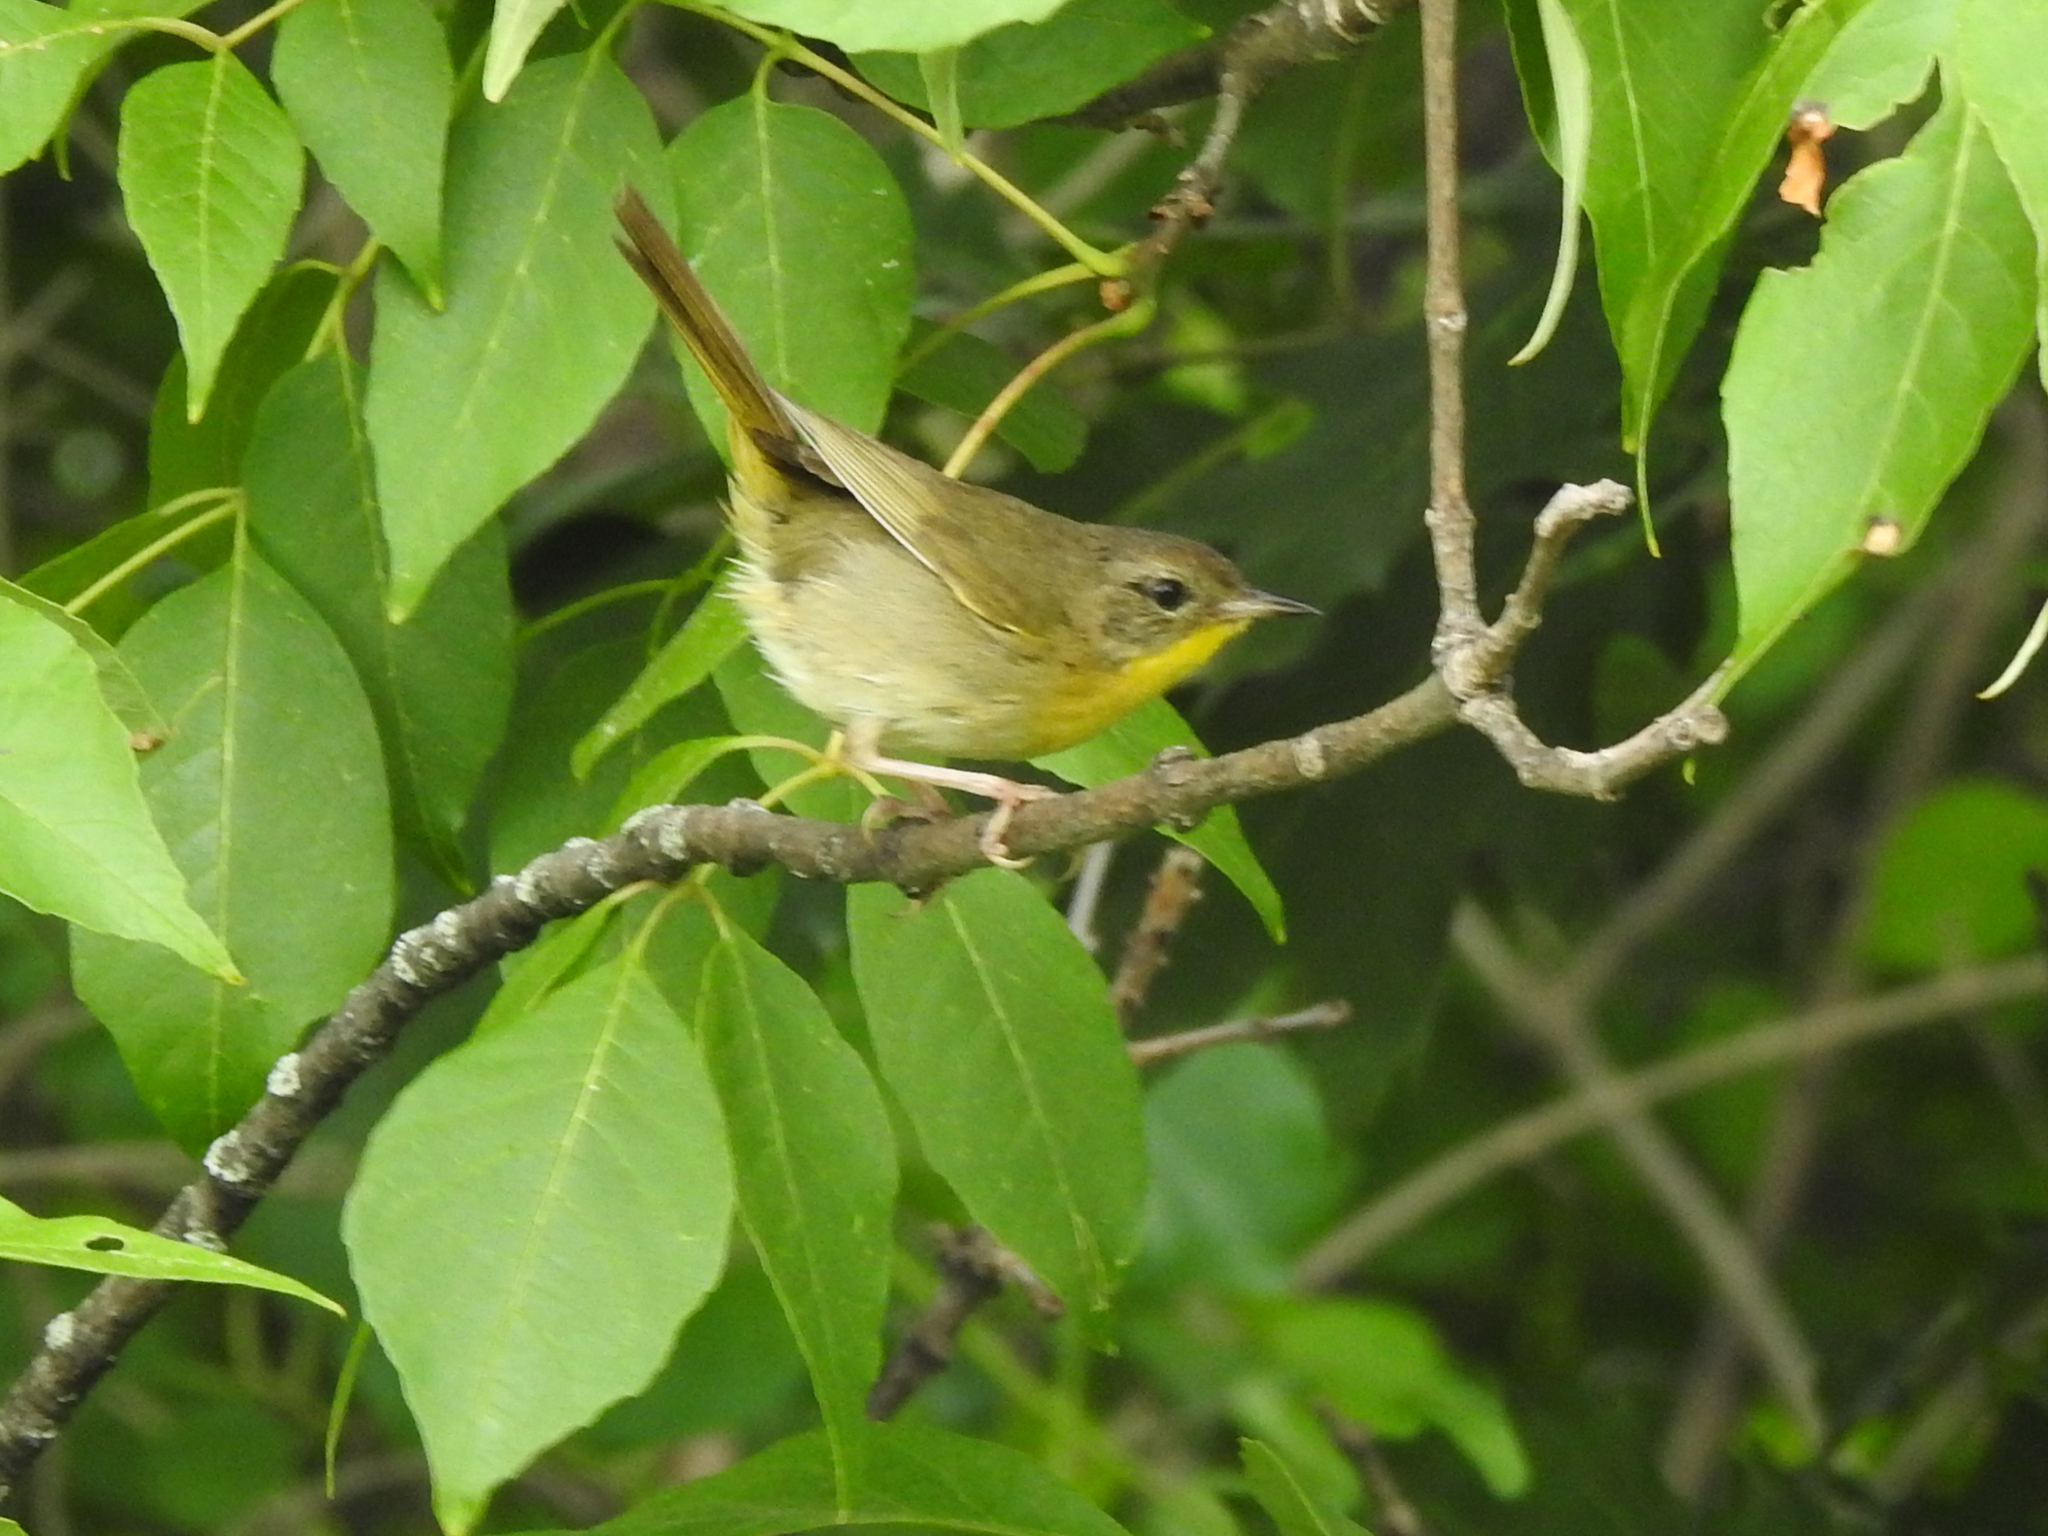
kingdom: Animalia
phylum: Chordata
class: Aves
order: Passeriformes
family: Parulidae
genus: Geothlypis
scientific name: Geothlypis trichas
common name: Common yellowthroat
